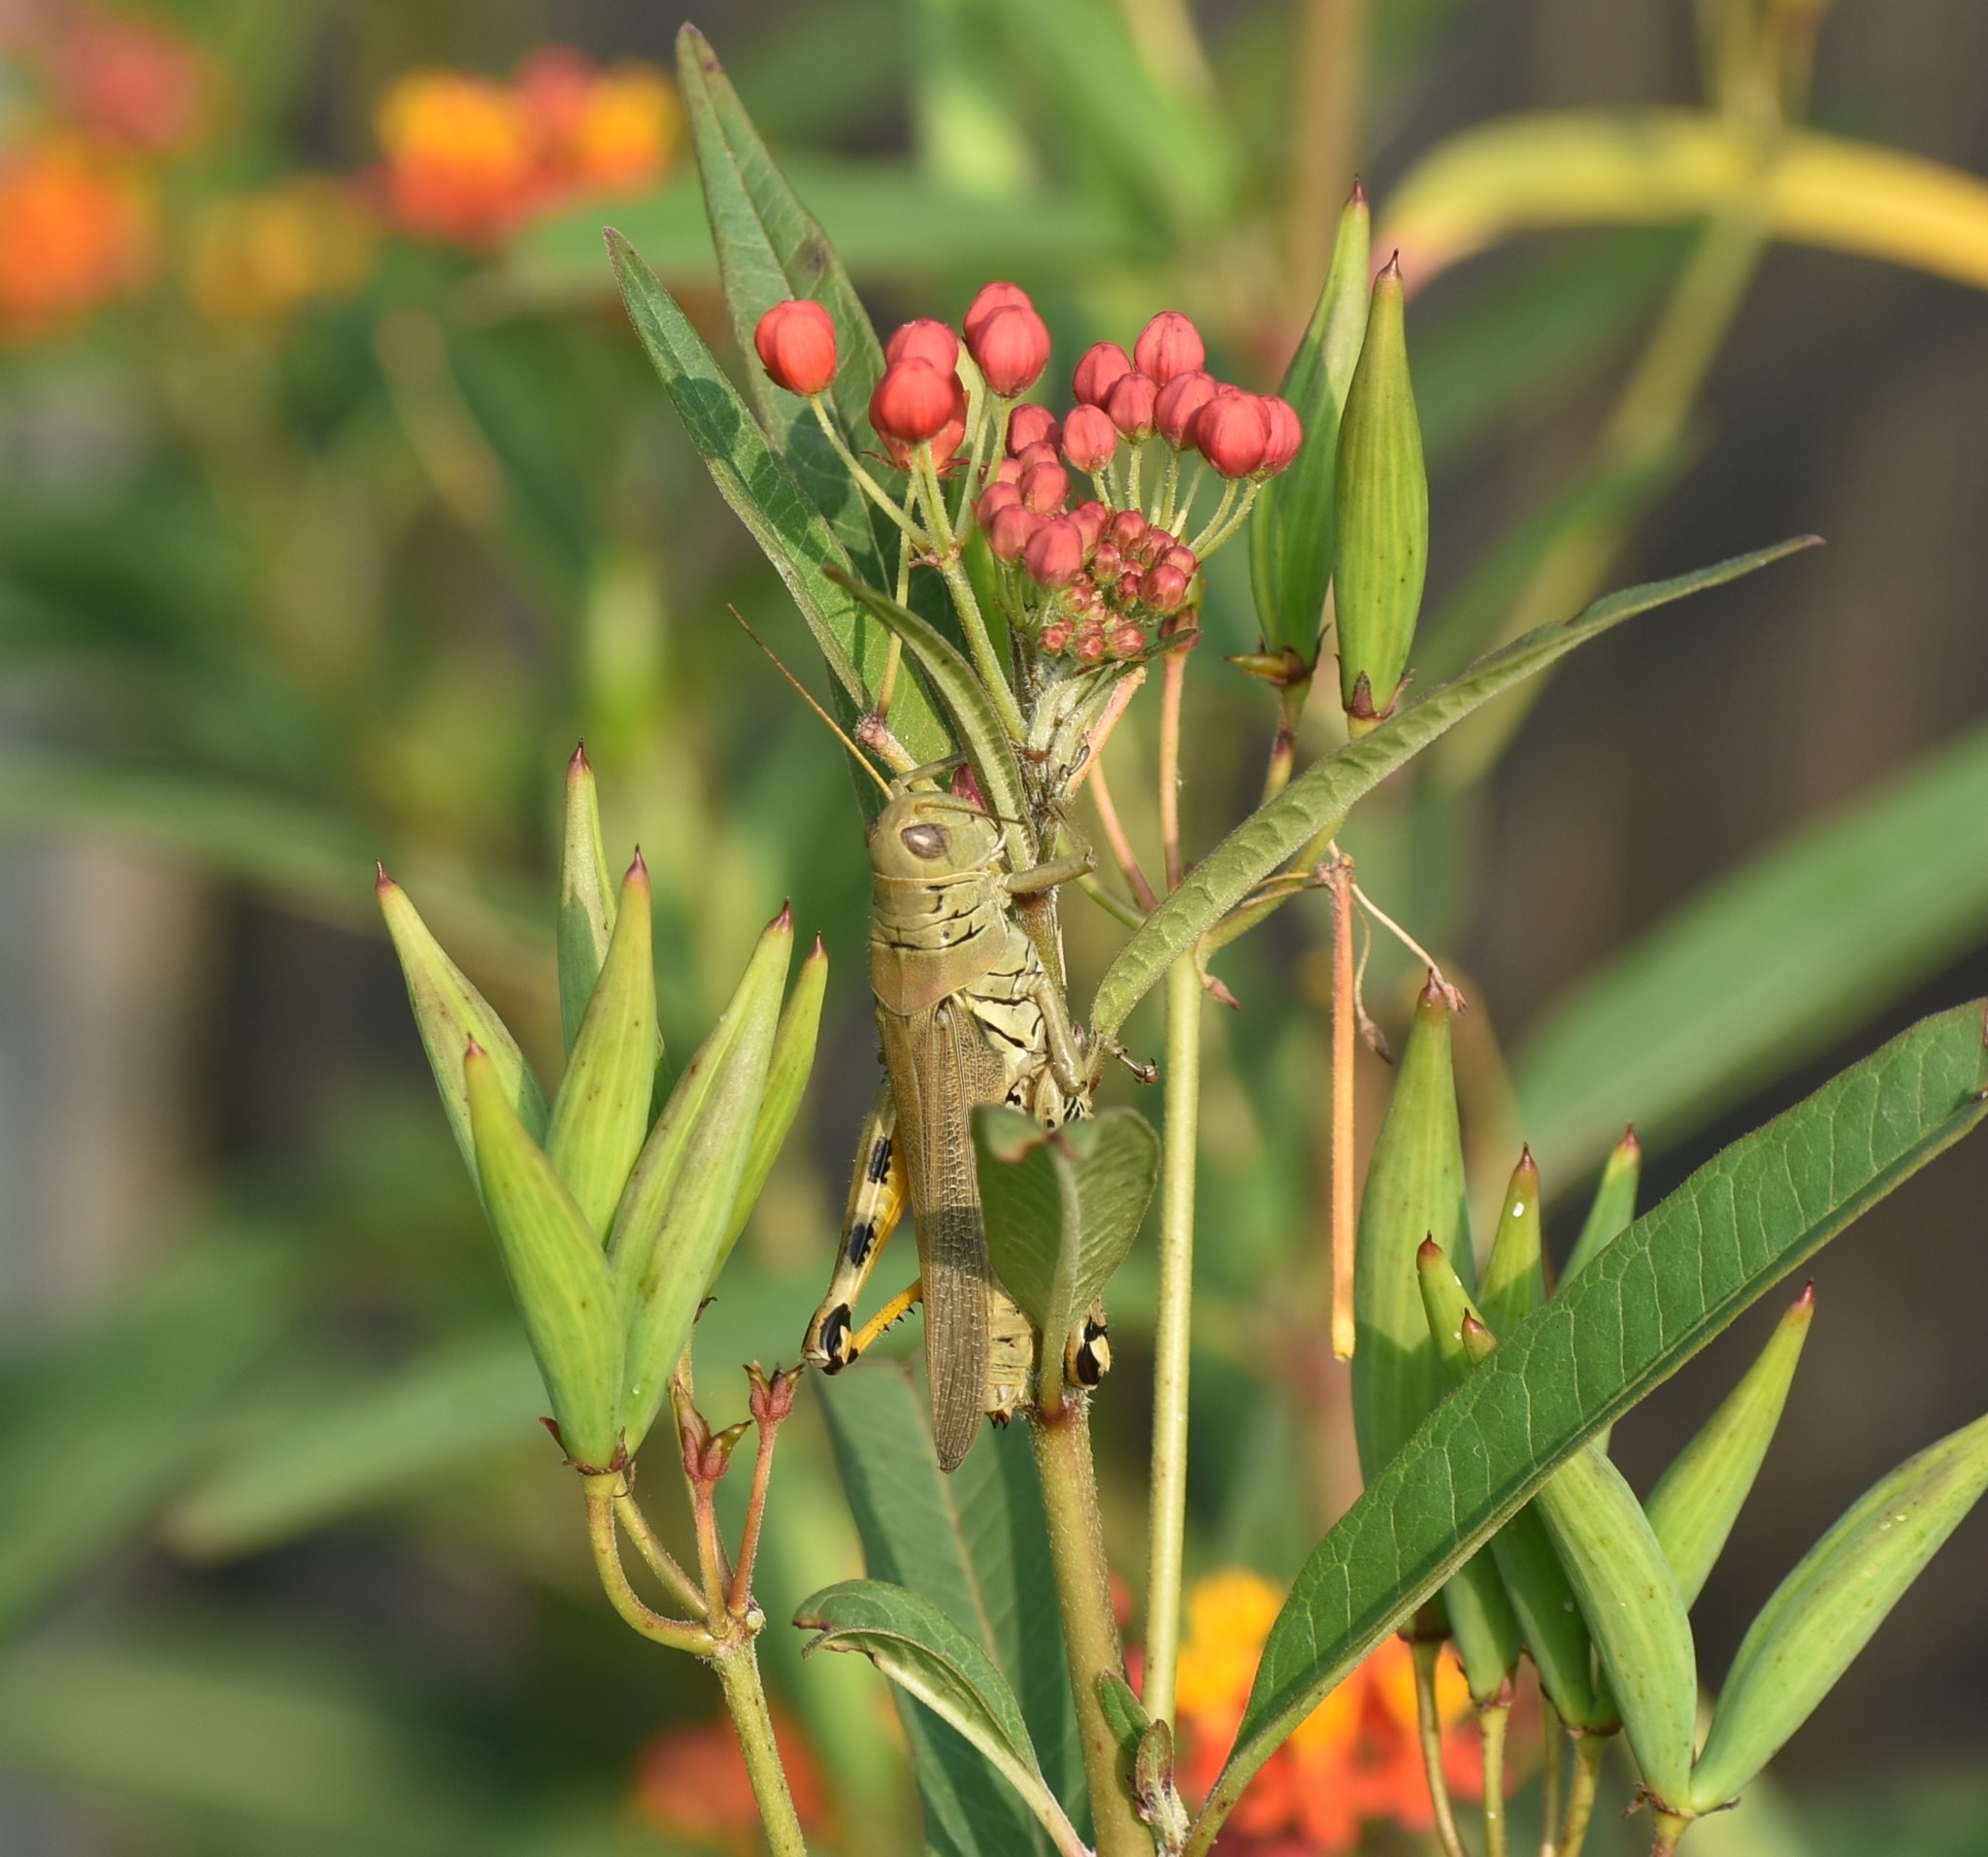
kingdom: Animalia
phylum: Arthropoda
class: Insecta
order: Orthoptera
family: Acrididae
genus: Melanoplus
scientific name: Melanoplus differentialis
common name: Differential grasshopper
